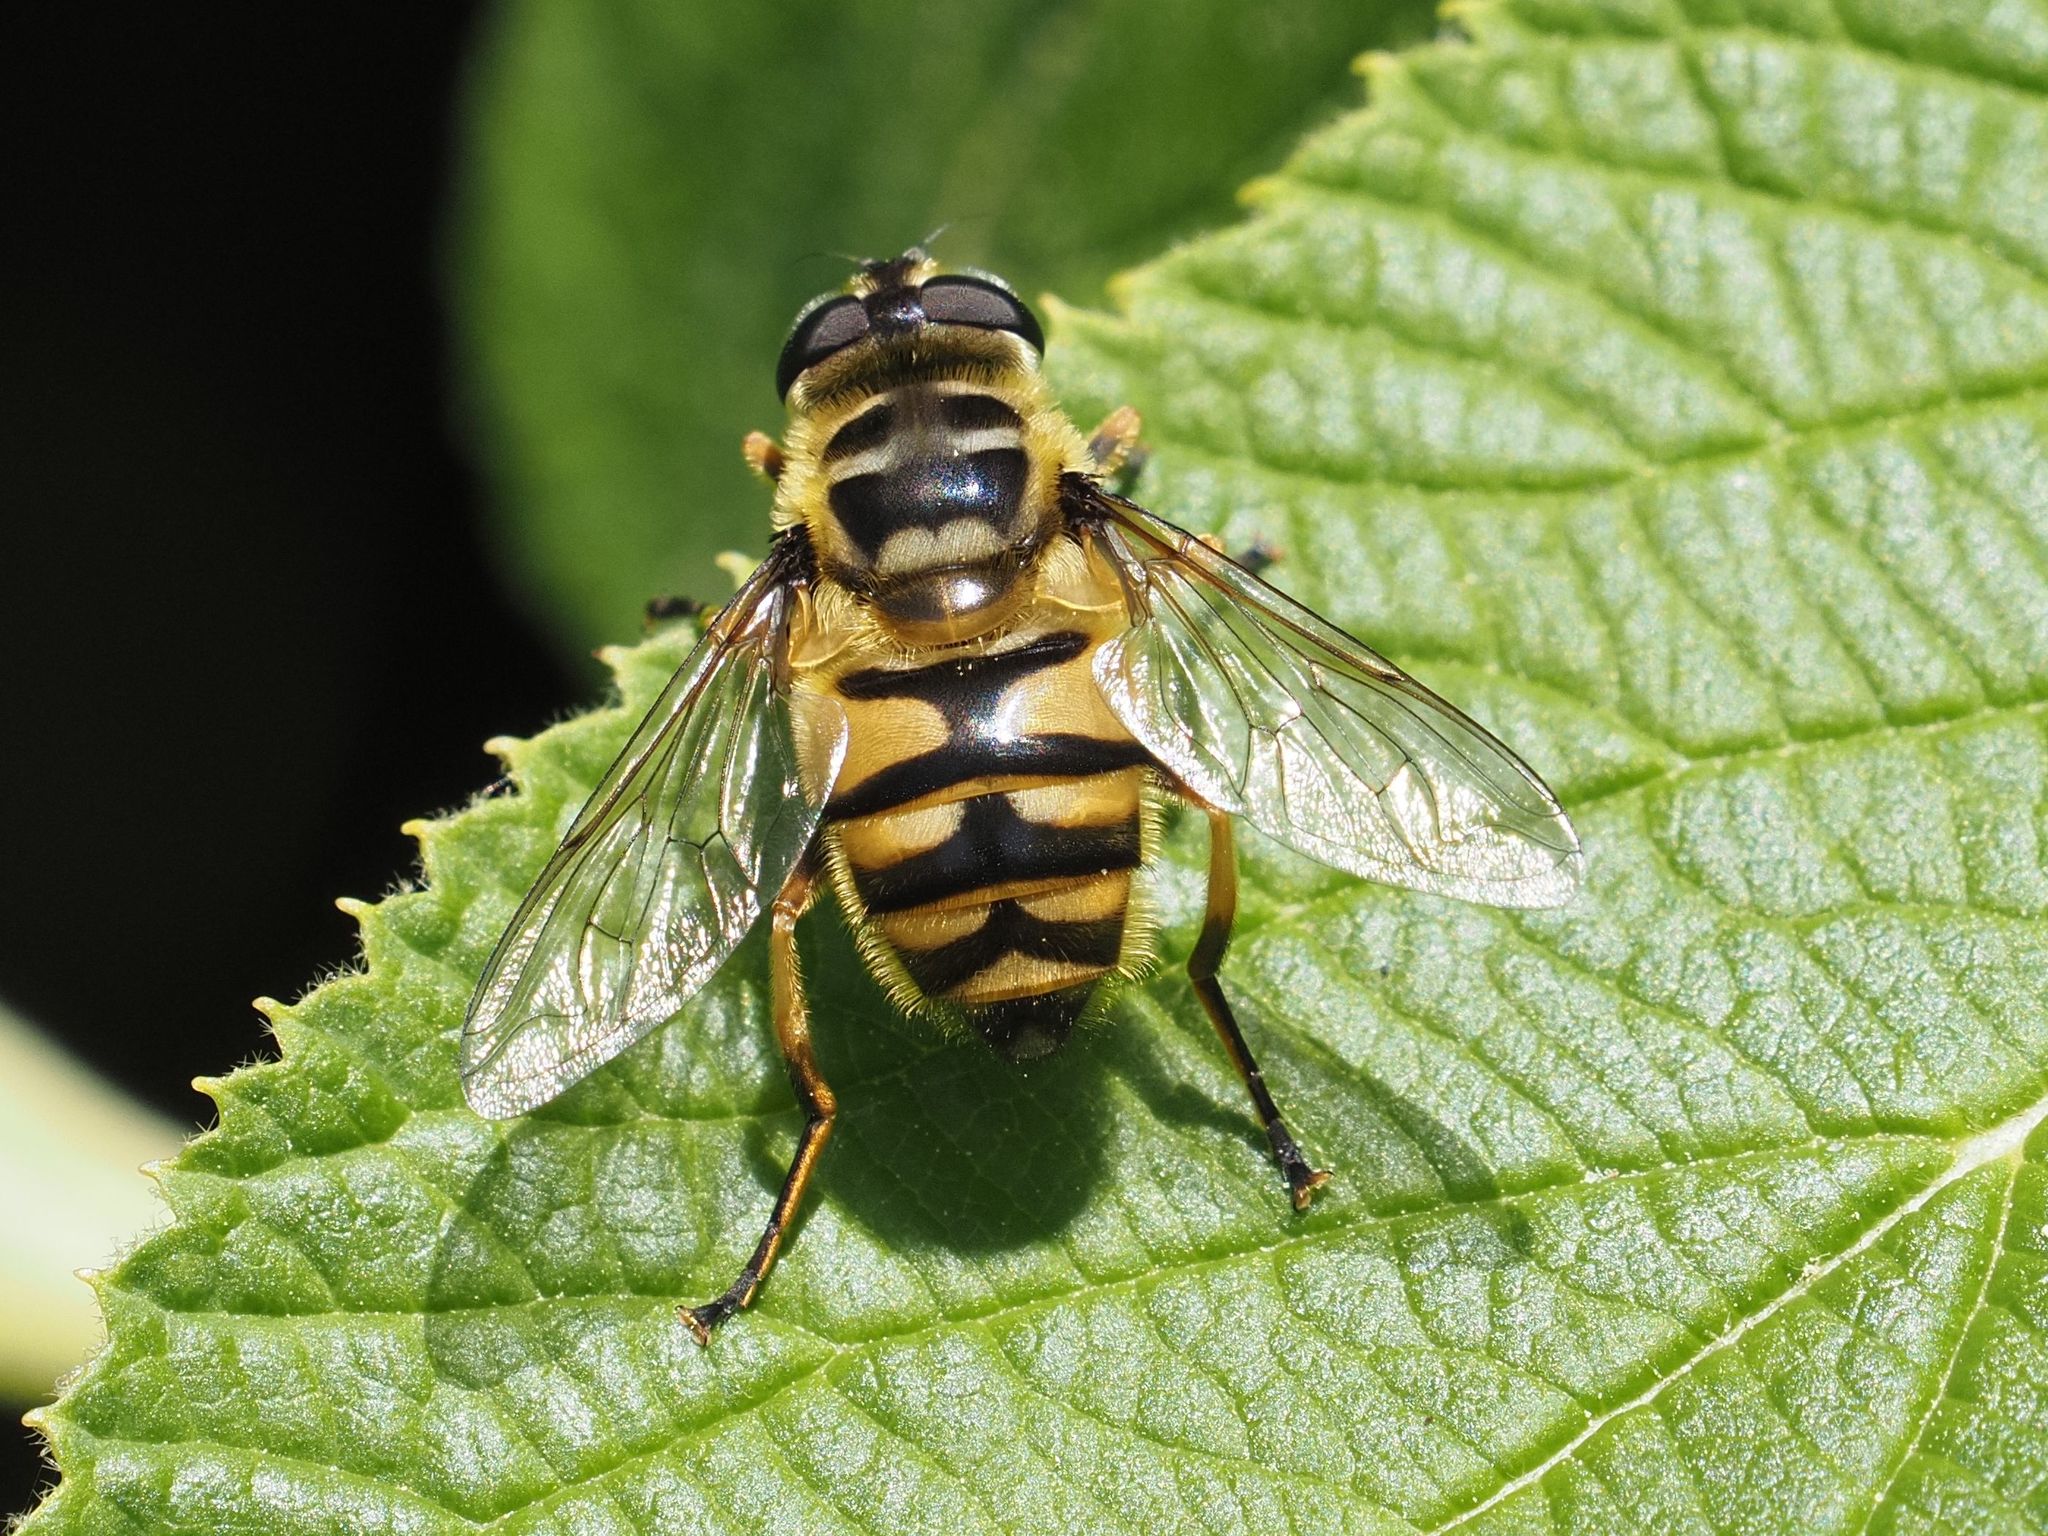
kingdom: Animalia
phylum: Arthropoda
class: Insecta
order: Diptera
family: Syrphidae
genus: Myathropa
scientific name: Myathropa florea
